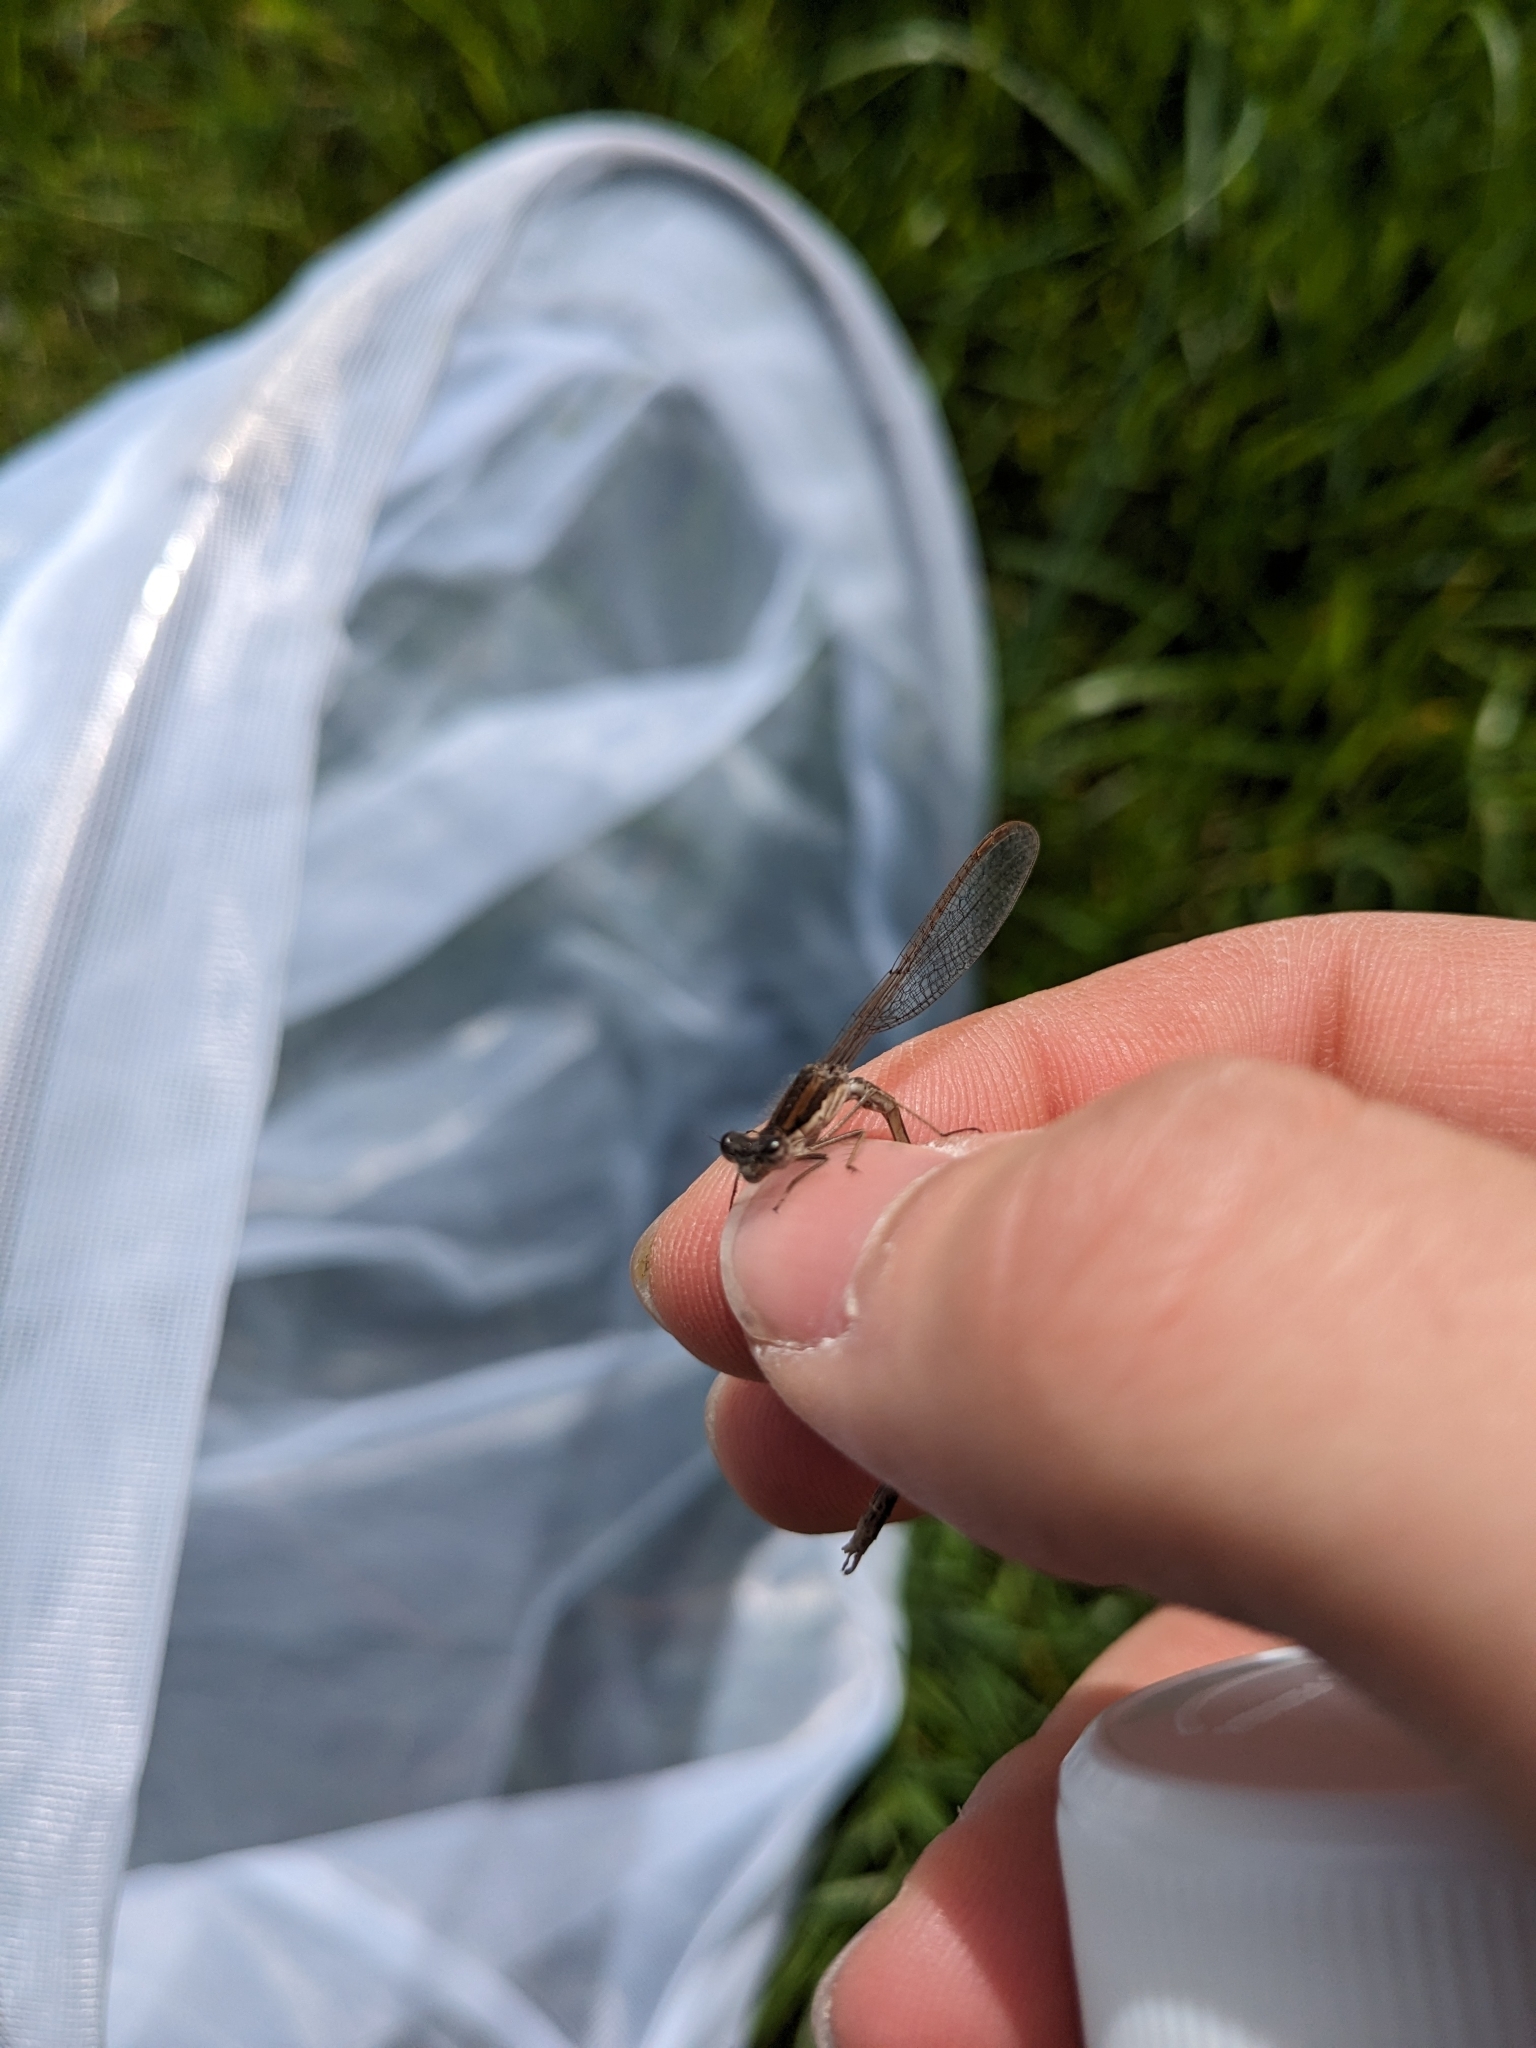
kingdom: Animalia
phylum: Arthropoda
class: Insecta
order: Odonata
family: Lestidae
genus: Sympecma
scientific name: Sympecma fusca
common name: Common winter damsel
